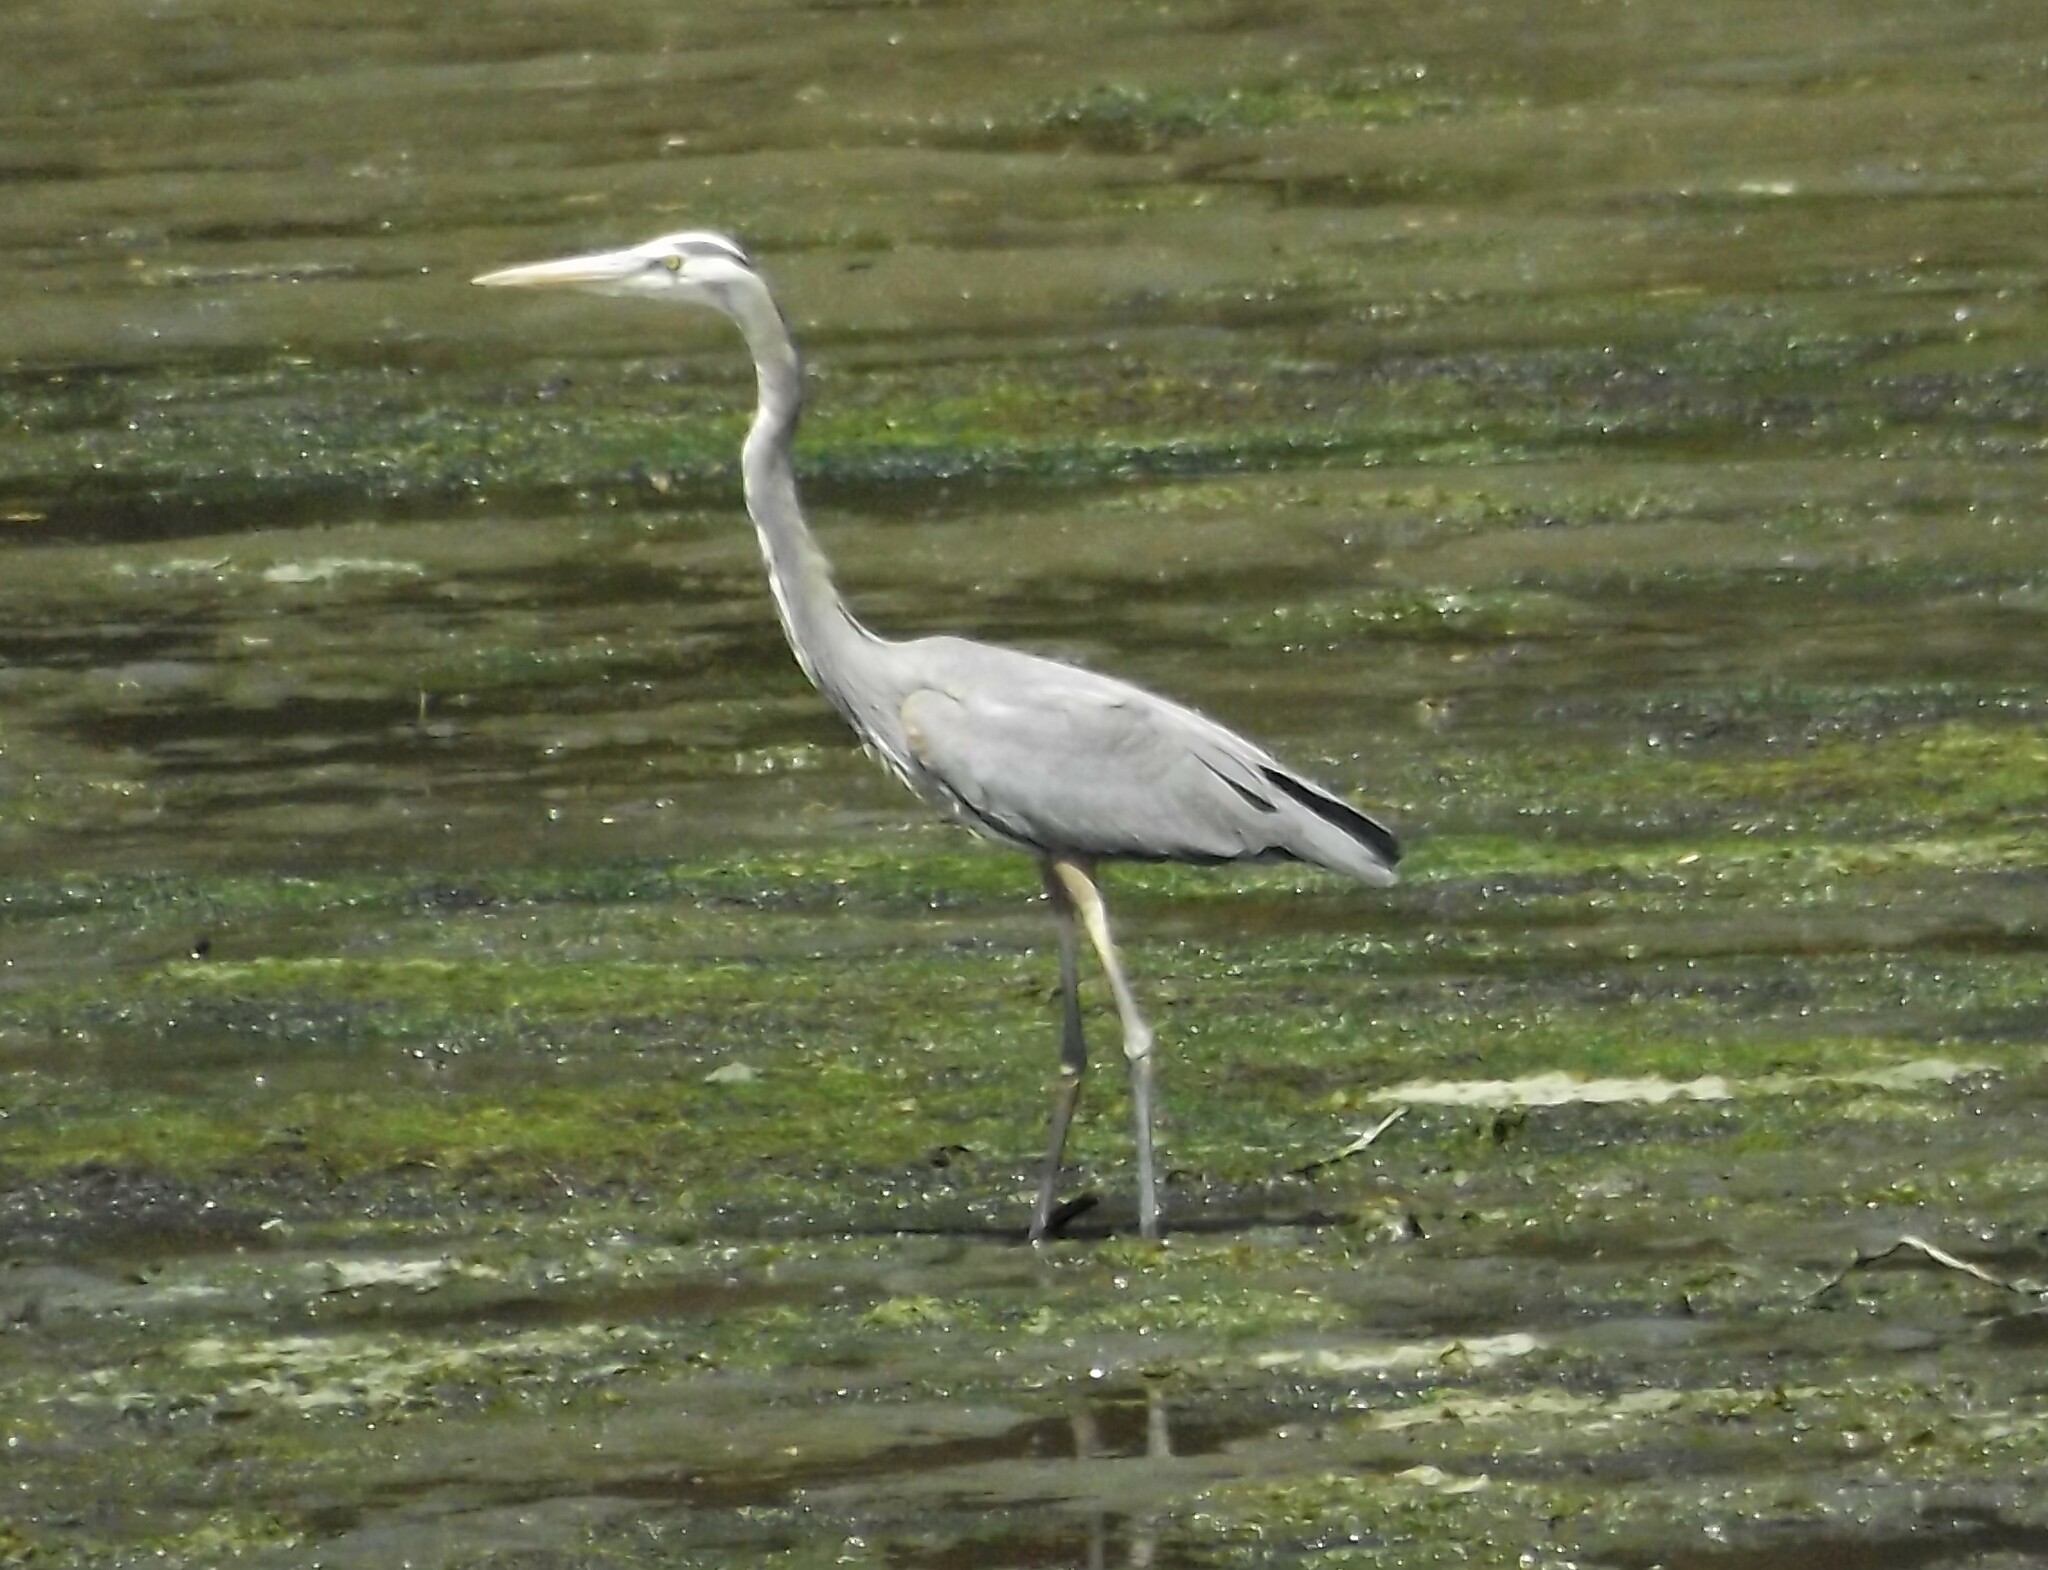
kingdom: Animalia
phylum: Chordata
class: Aves
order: Pelecaniformes
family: Ardeidae
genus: Ardea
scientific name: Ardea herodias
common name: Great blue heron
